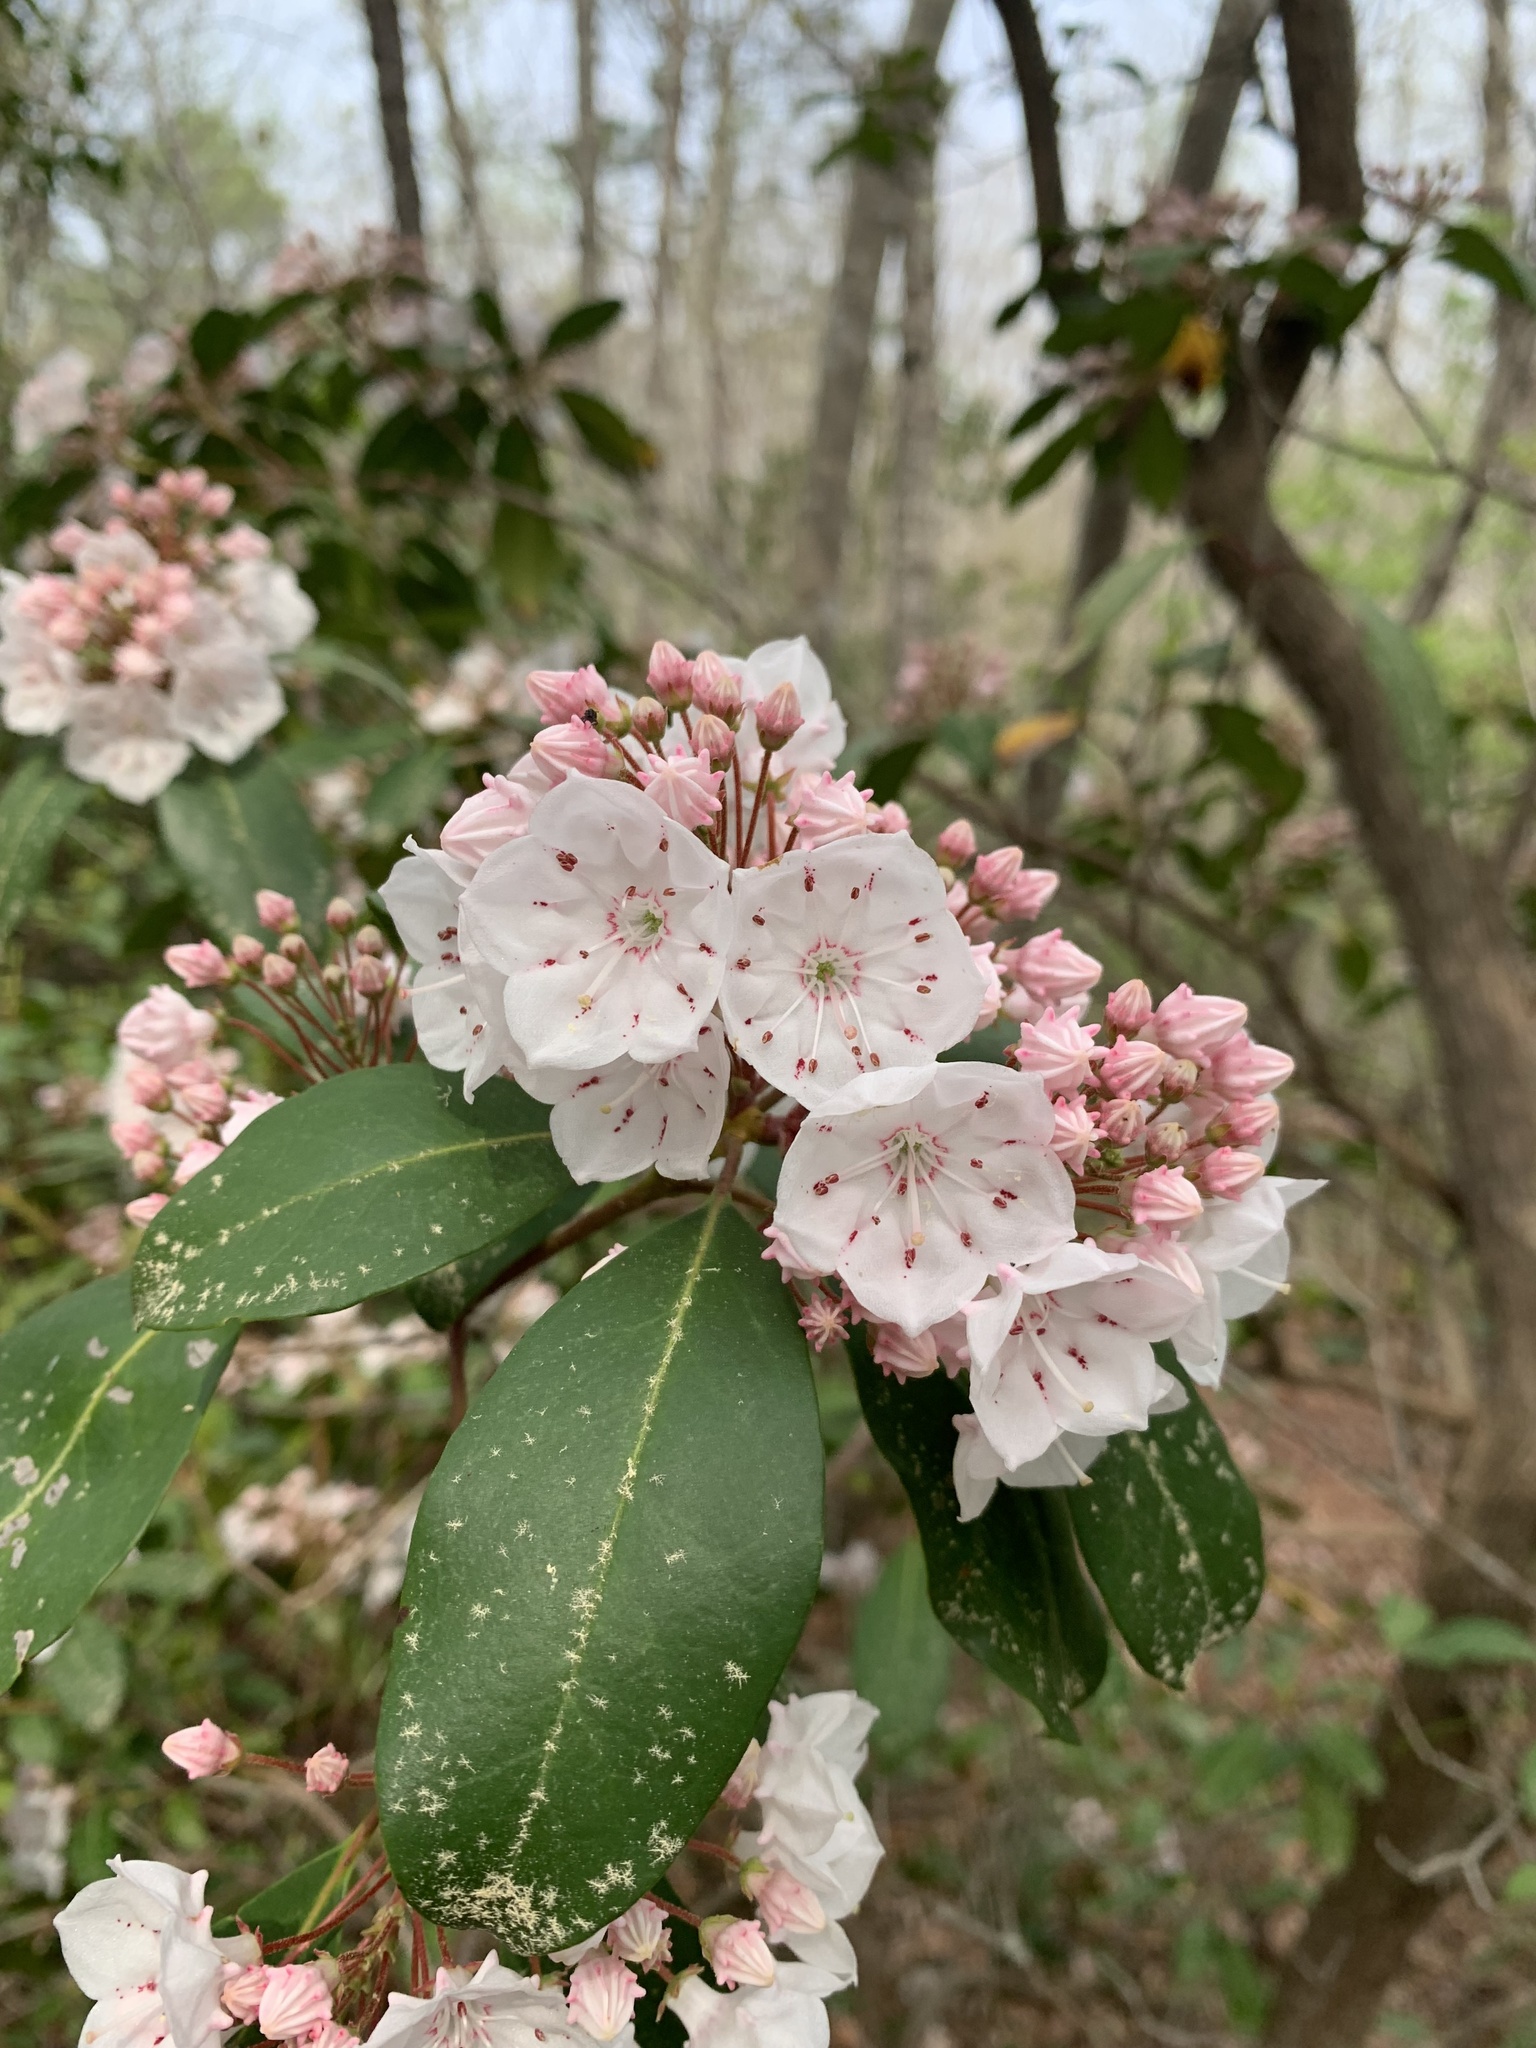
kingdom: Plantae
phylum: Tracheophyta
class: Magnoliopsida
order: Ericales
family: Ericaceae
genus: Kalmia
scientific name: Kalmia latifolia
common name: Mountain-laurel
